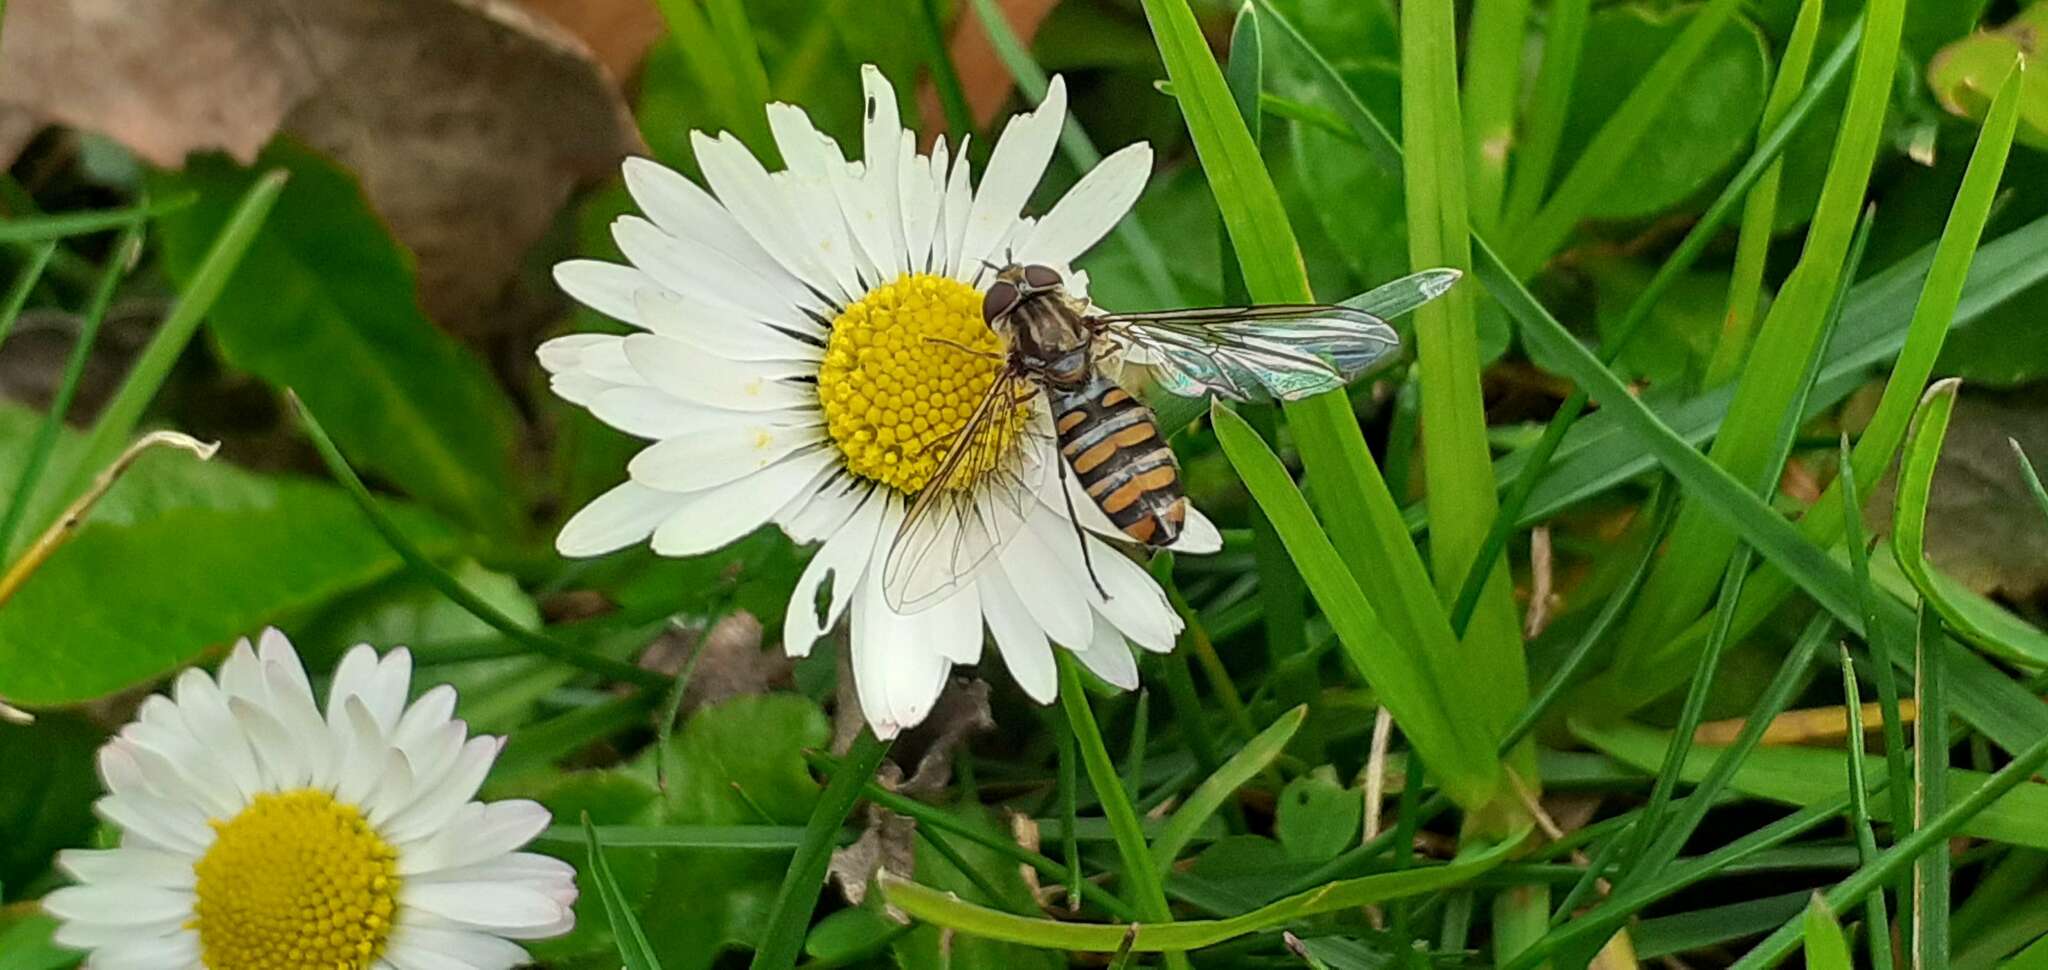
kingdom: Animalia
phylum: Arthropoda
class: Insecta
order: Diptera
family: Syrphidae
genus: Episyrphus
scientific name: Episyrphus balteatus
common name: Marmalade hoverfly
